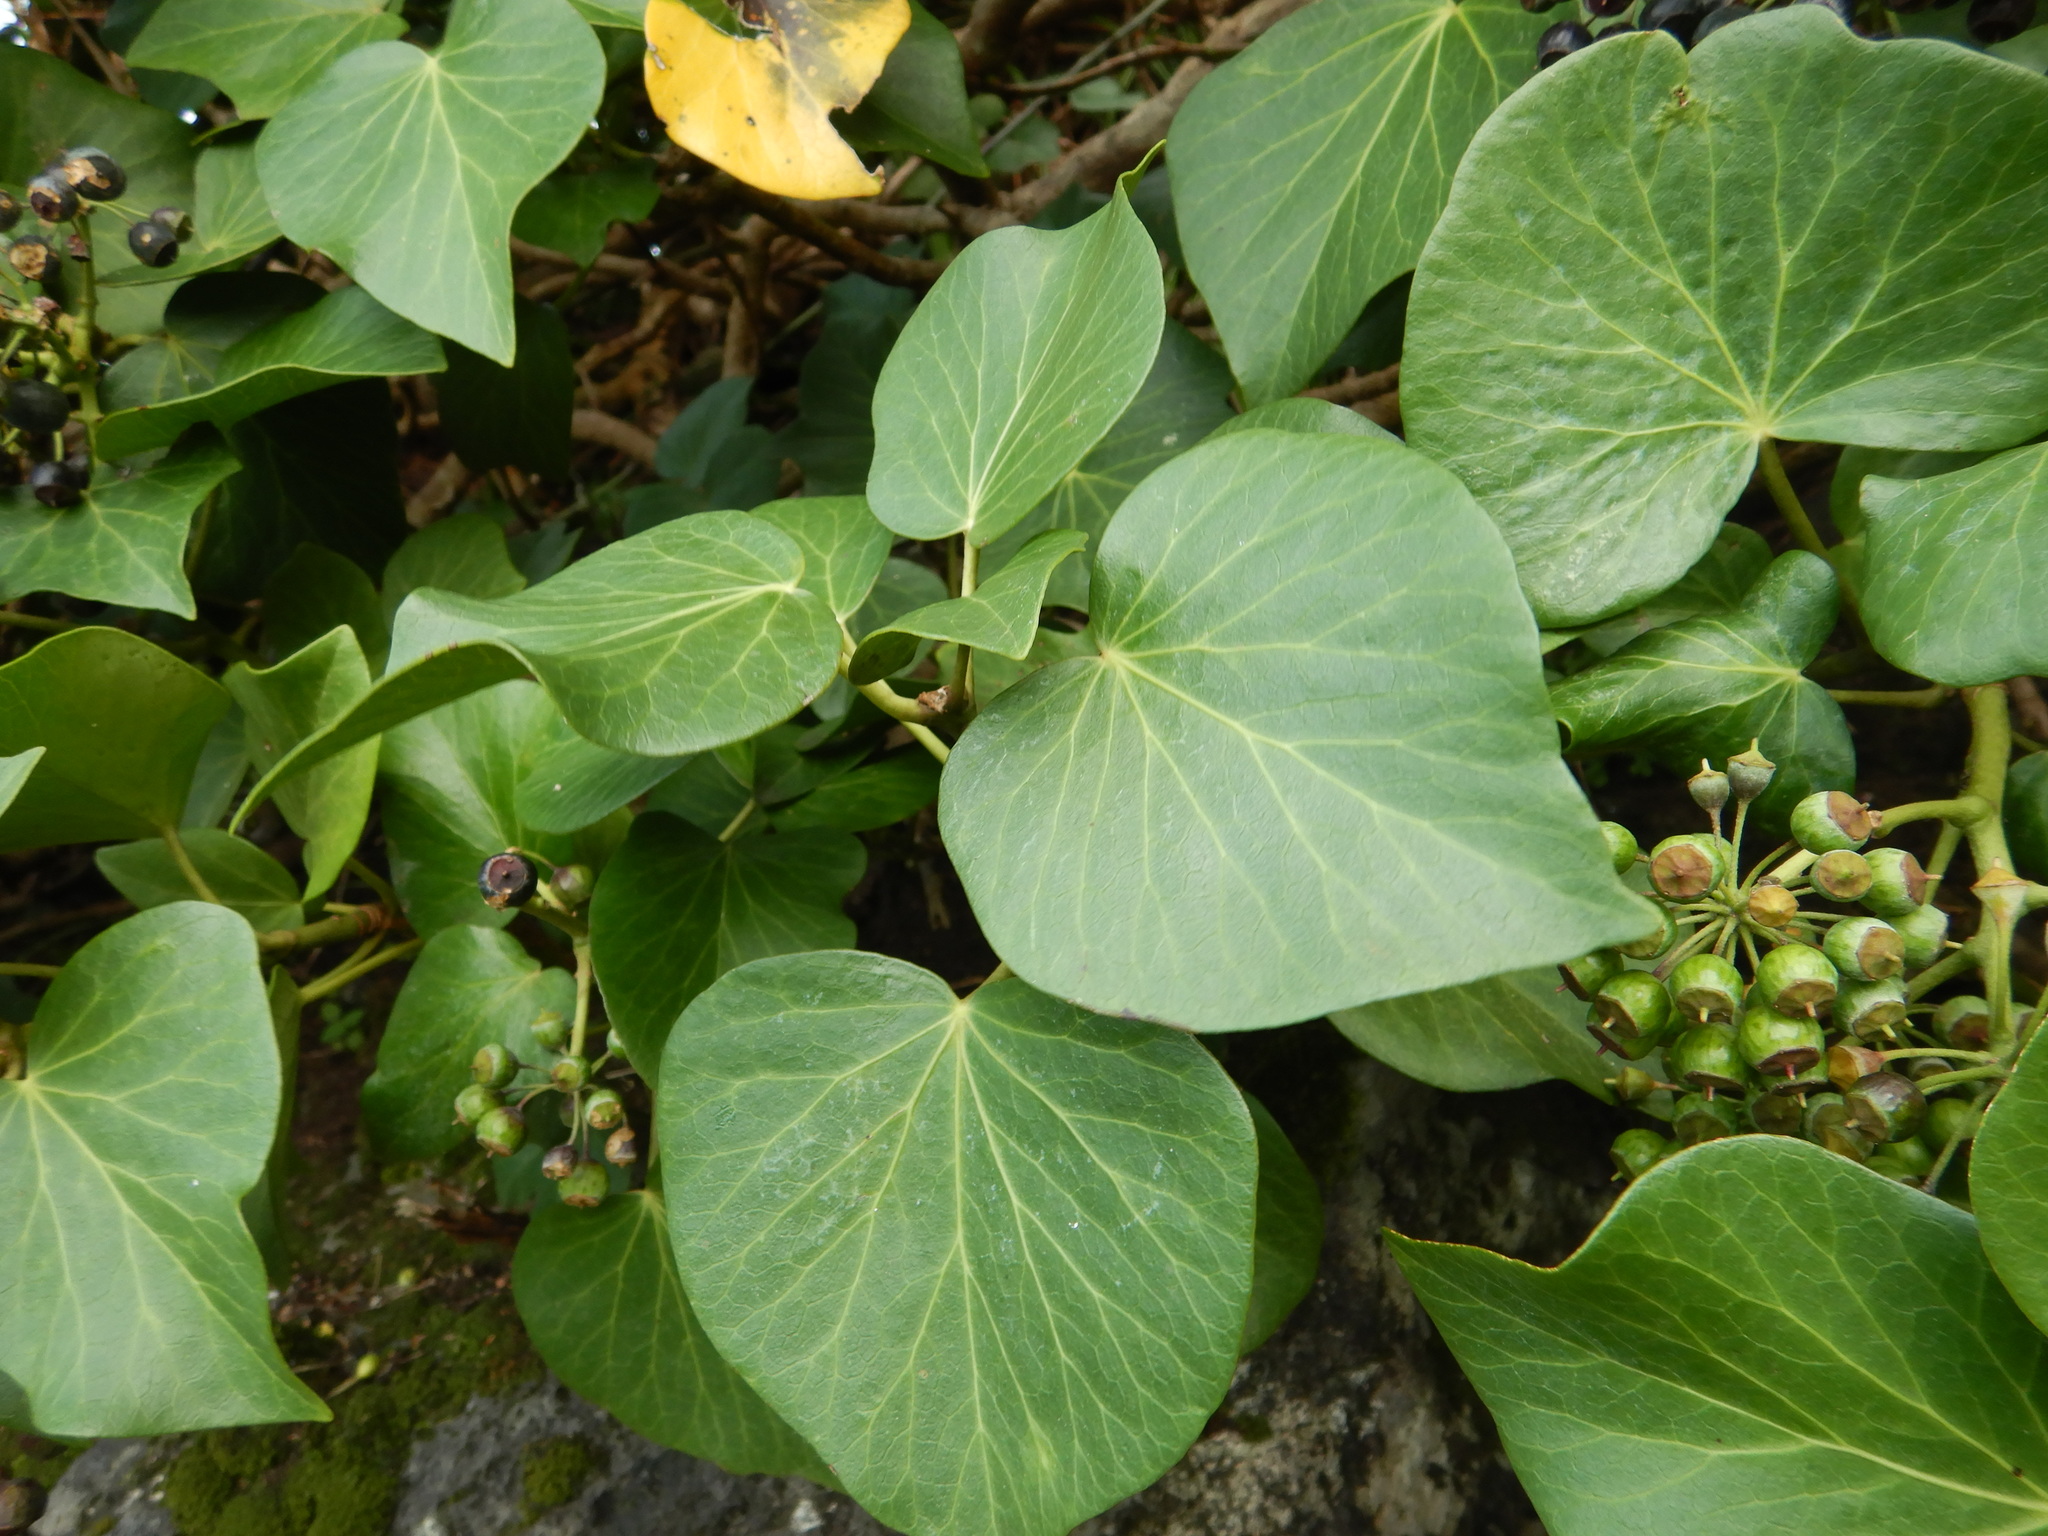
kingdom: Plantae
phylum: Tracheophyta
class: Magnoliopsida
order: Apiales
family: Araliaceae
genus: Hedera
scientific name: Hedera azorica
